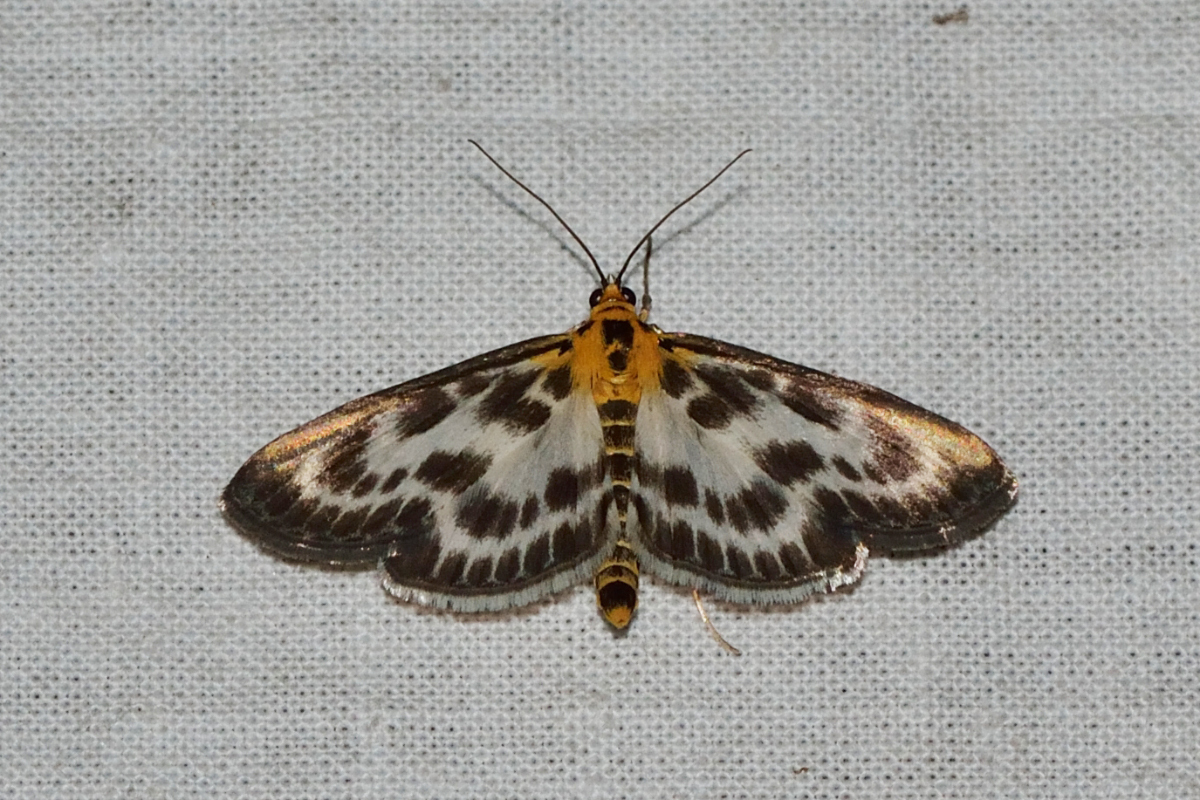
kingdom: Animalia
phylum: Arthropoda
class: Insecta
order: Lepidoptera
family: Crambidae
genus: Anania
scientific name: Anania hortulata
